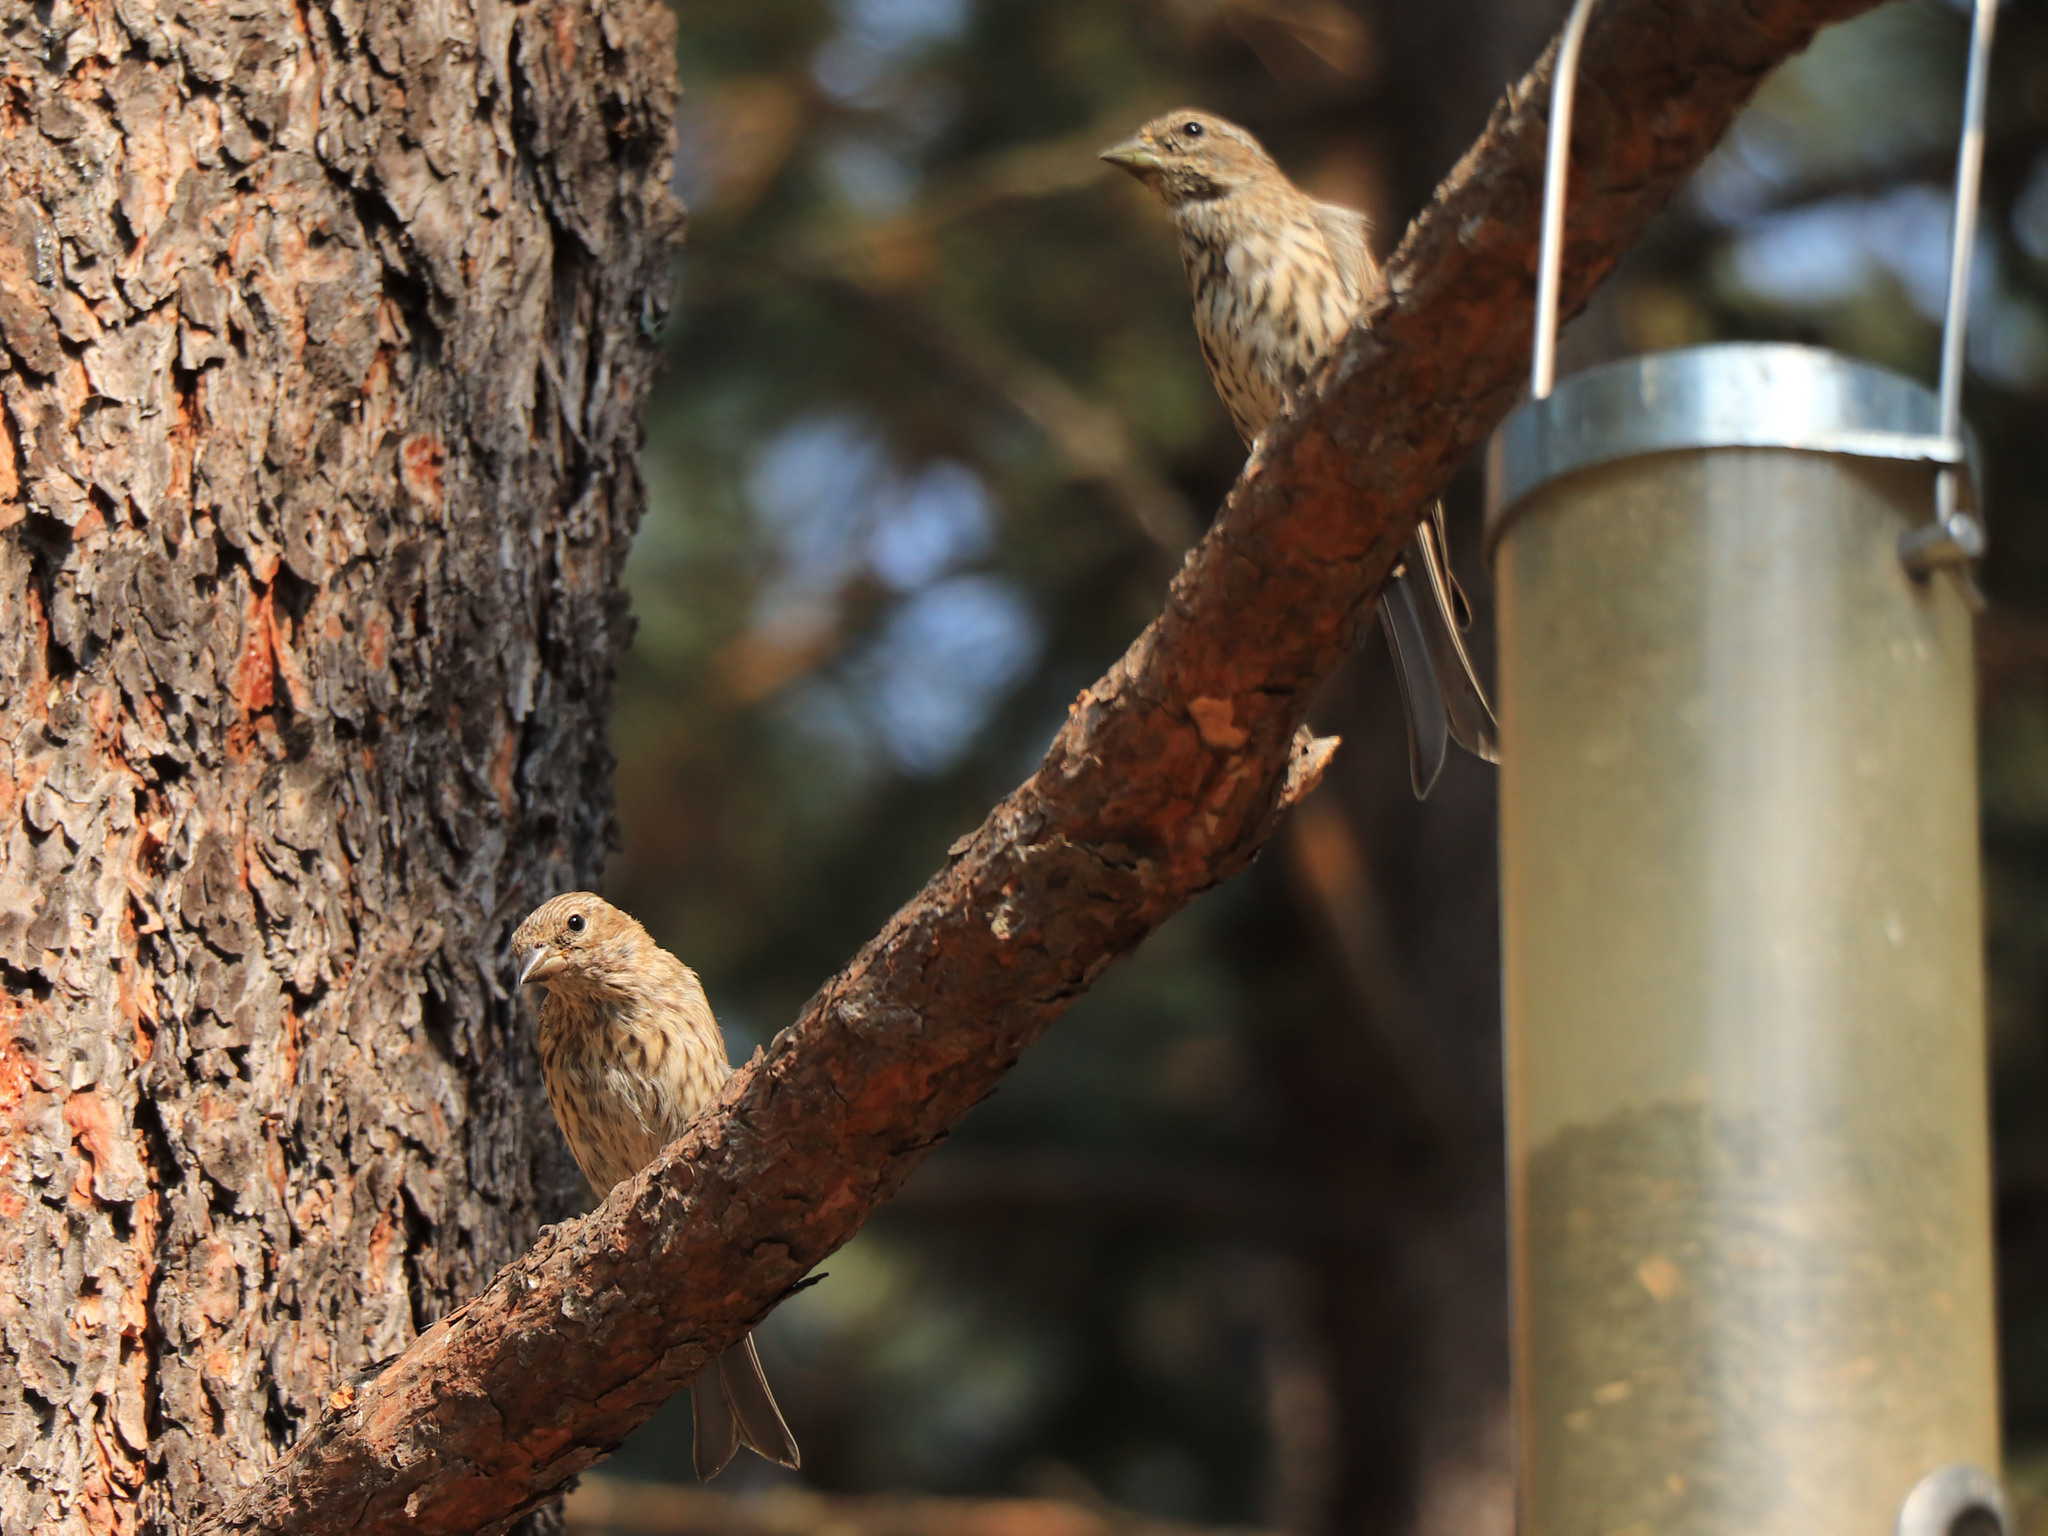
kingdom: Animalia
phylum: Chordata
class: Aves
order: Passeriformes
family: Fringillidae
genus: Haemorhous
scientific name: Haemorhous cassinii
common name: Cassin's finch
